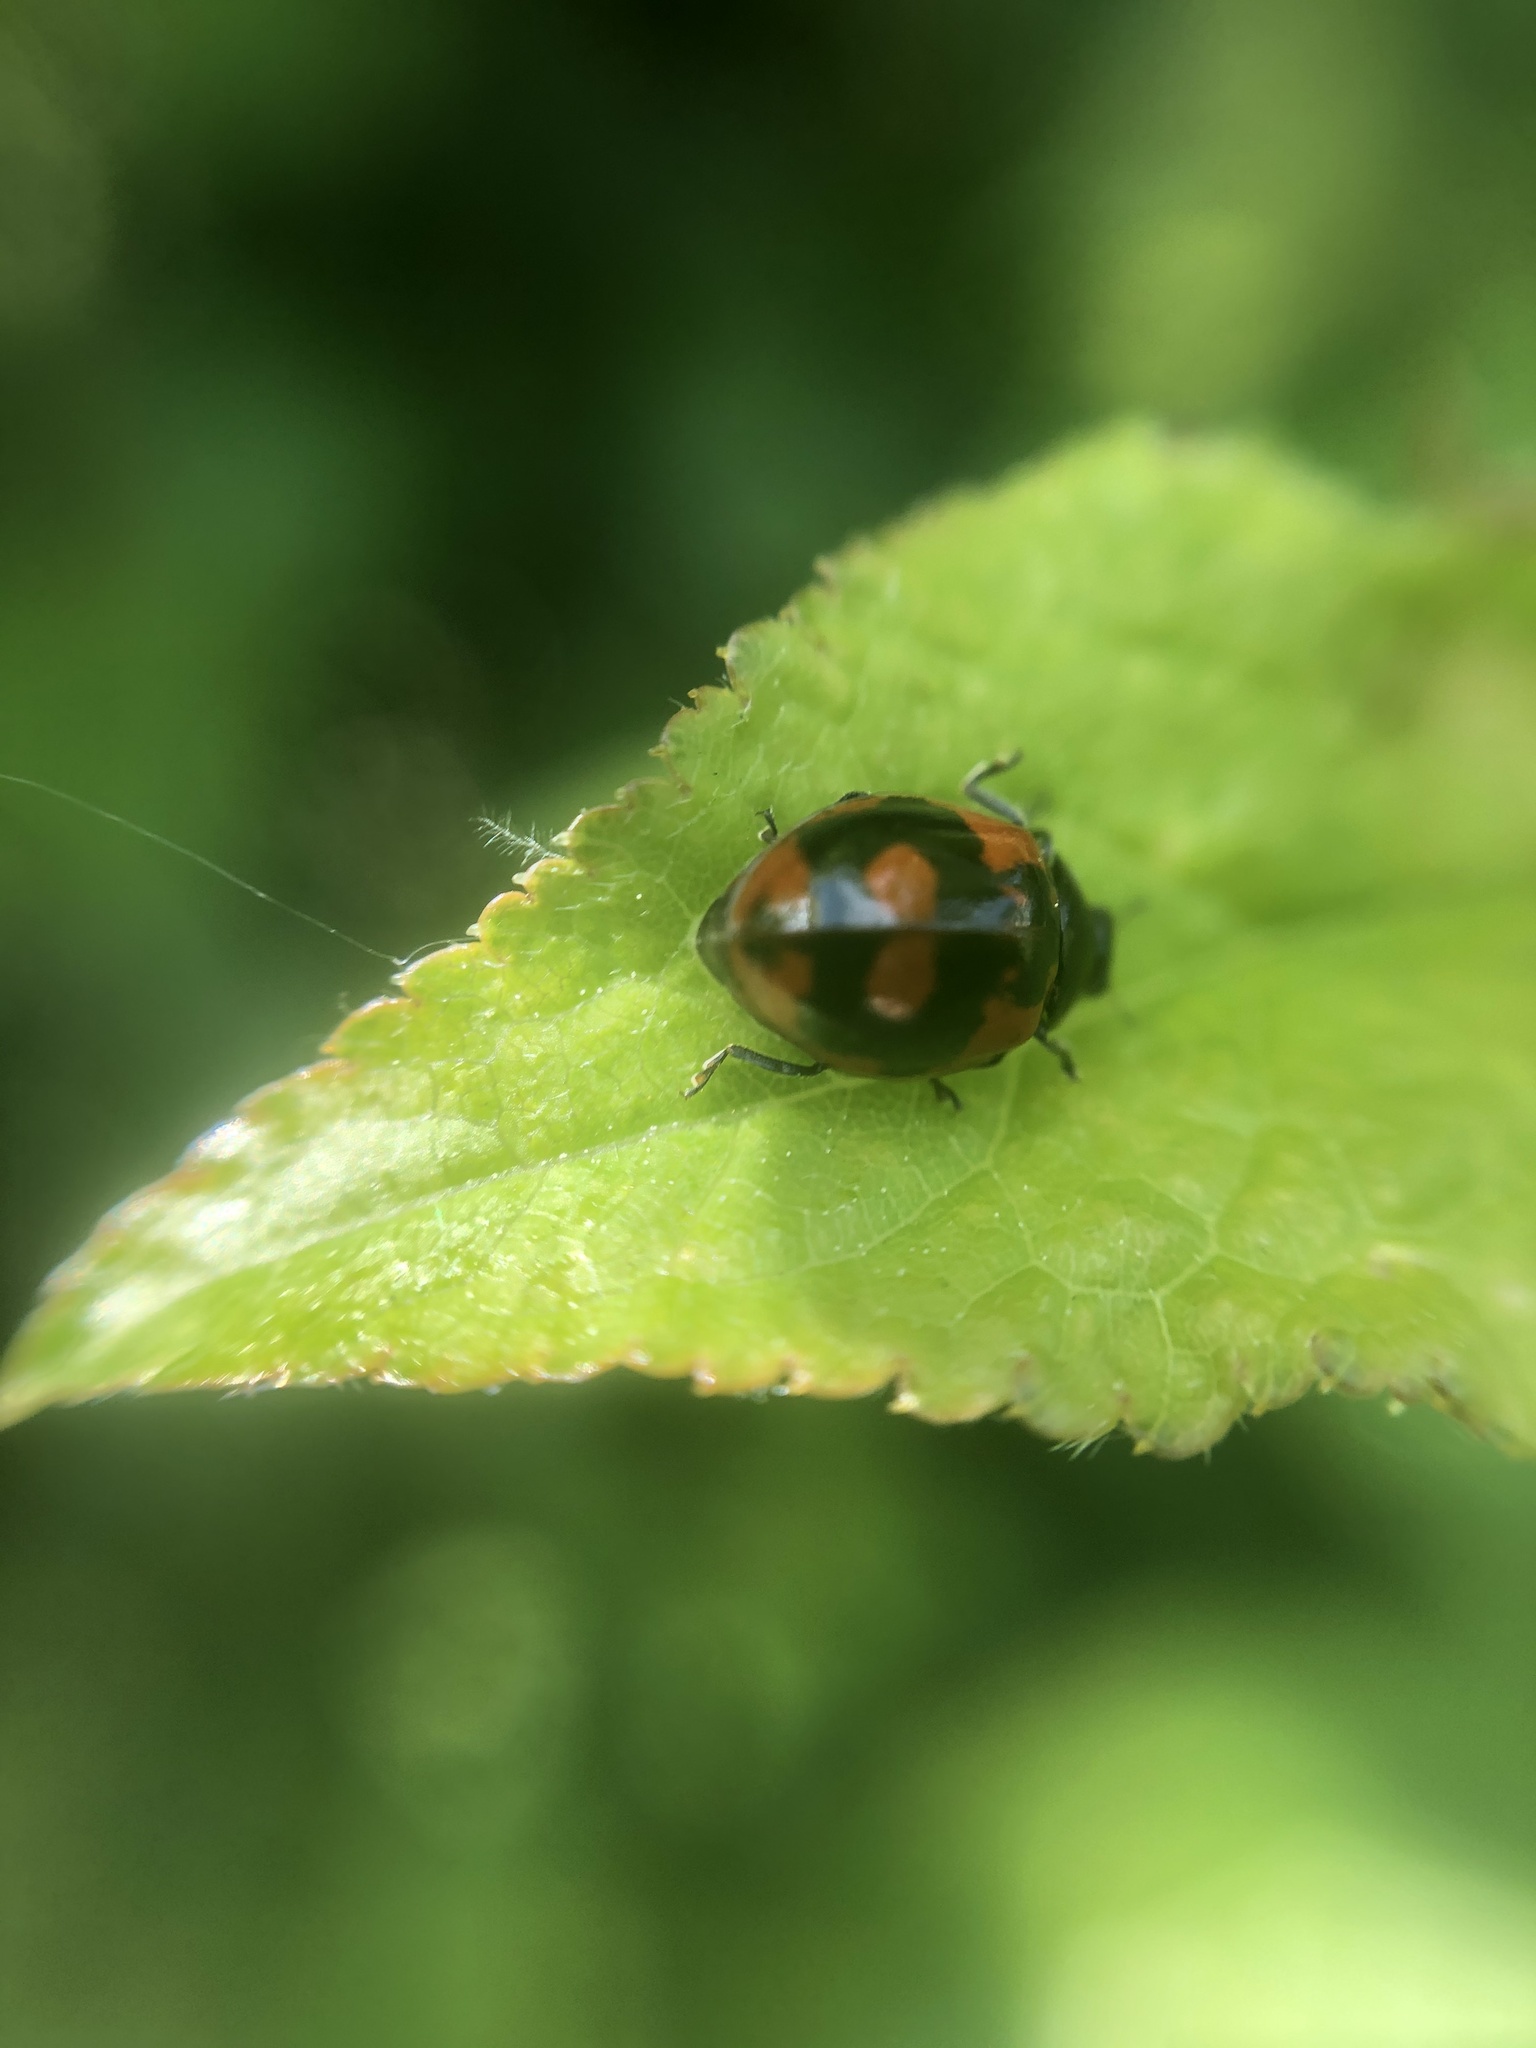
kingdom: Animalia
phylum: Arthropoda
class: Insecta
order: Coleoptera
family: Coccinellidae
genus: Adalia
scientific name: Adalia bipunctata
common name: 2-spot ladybird
